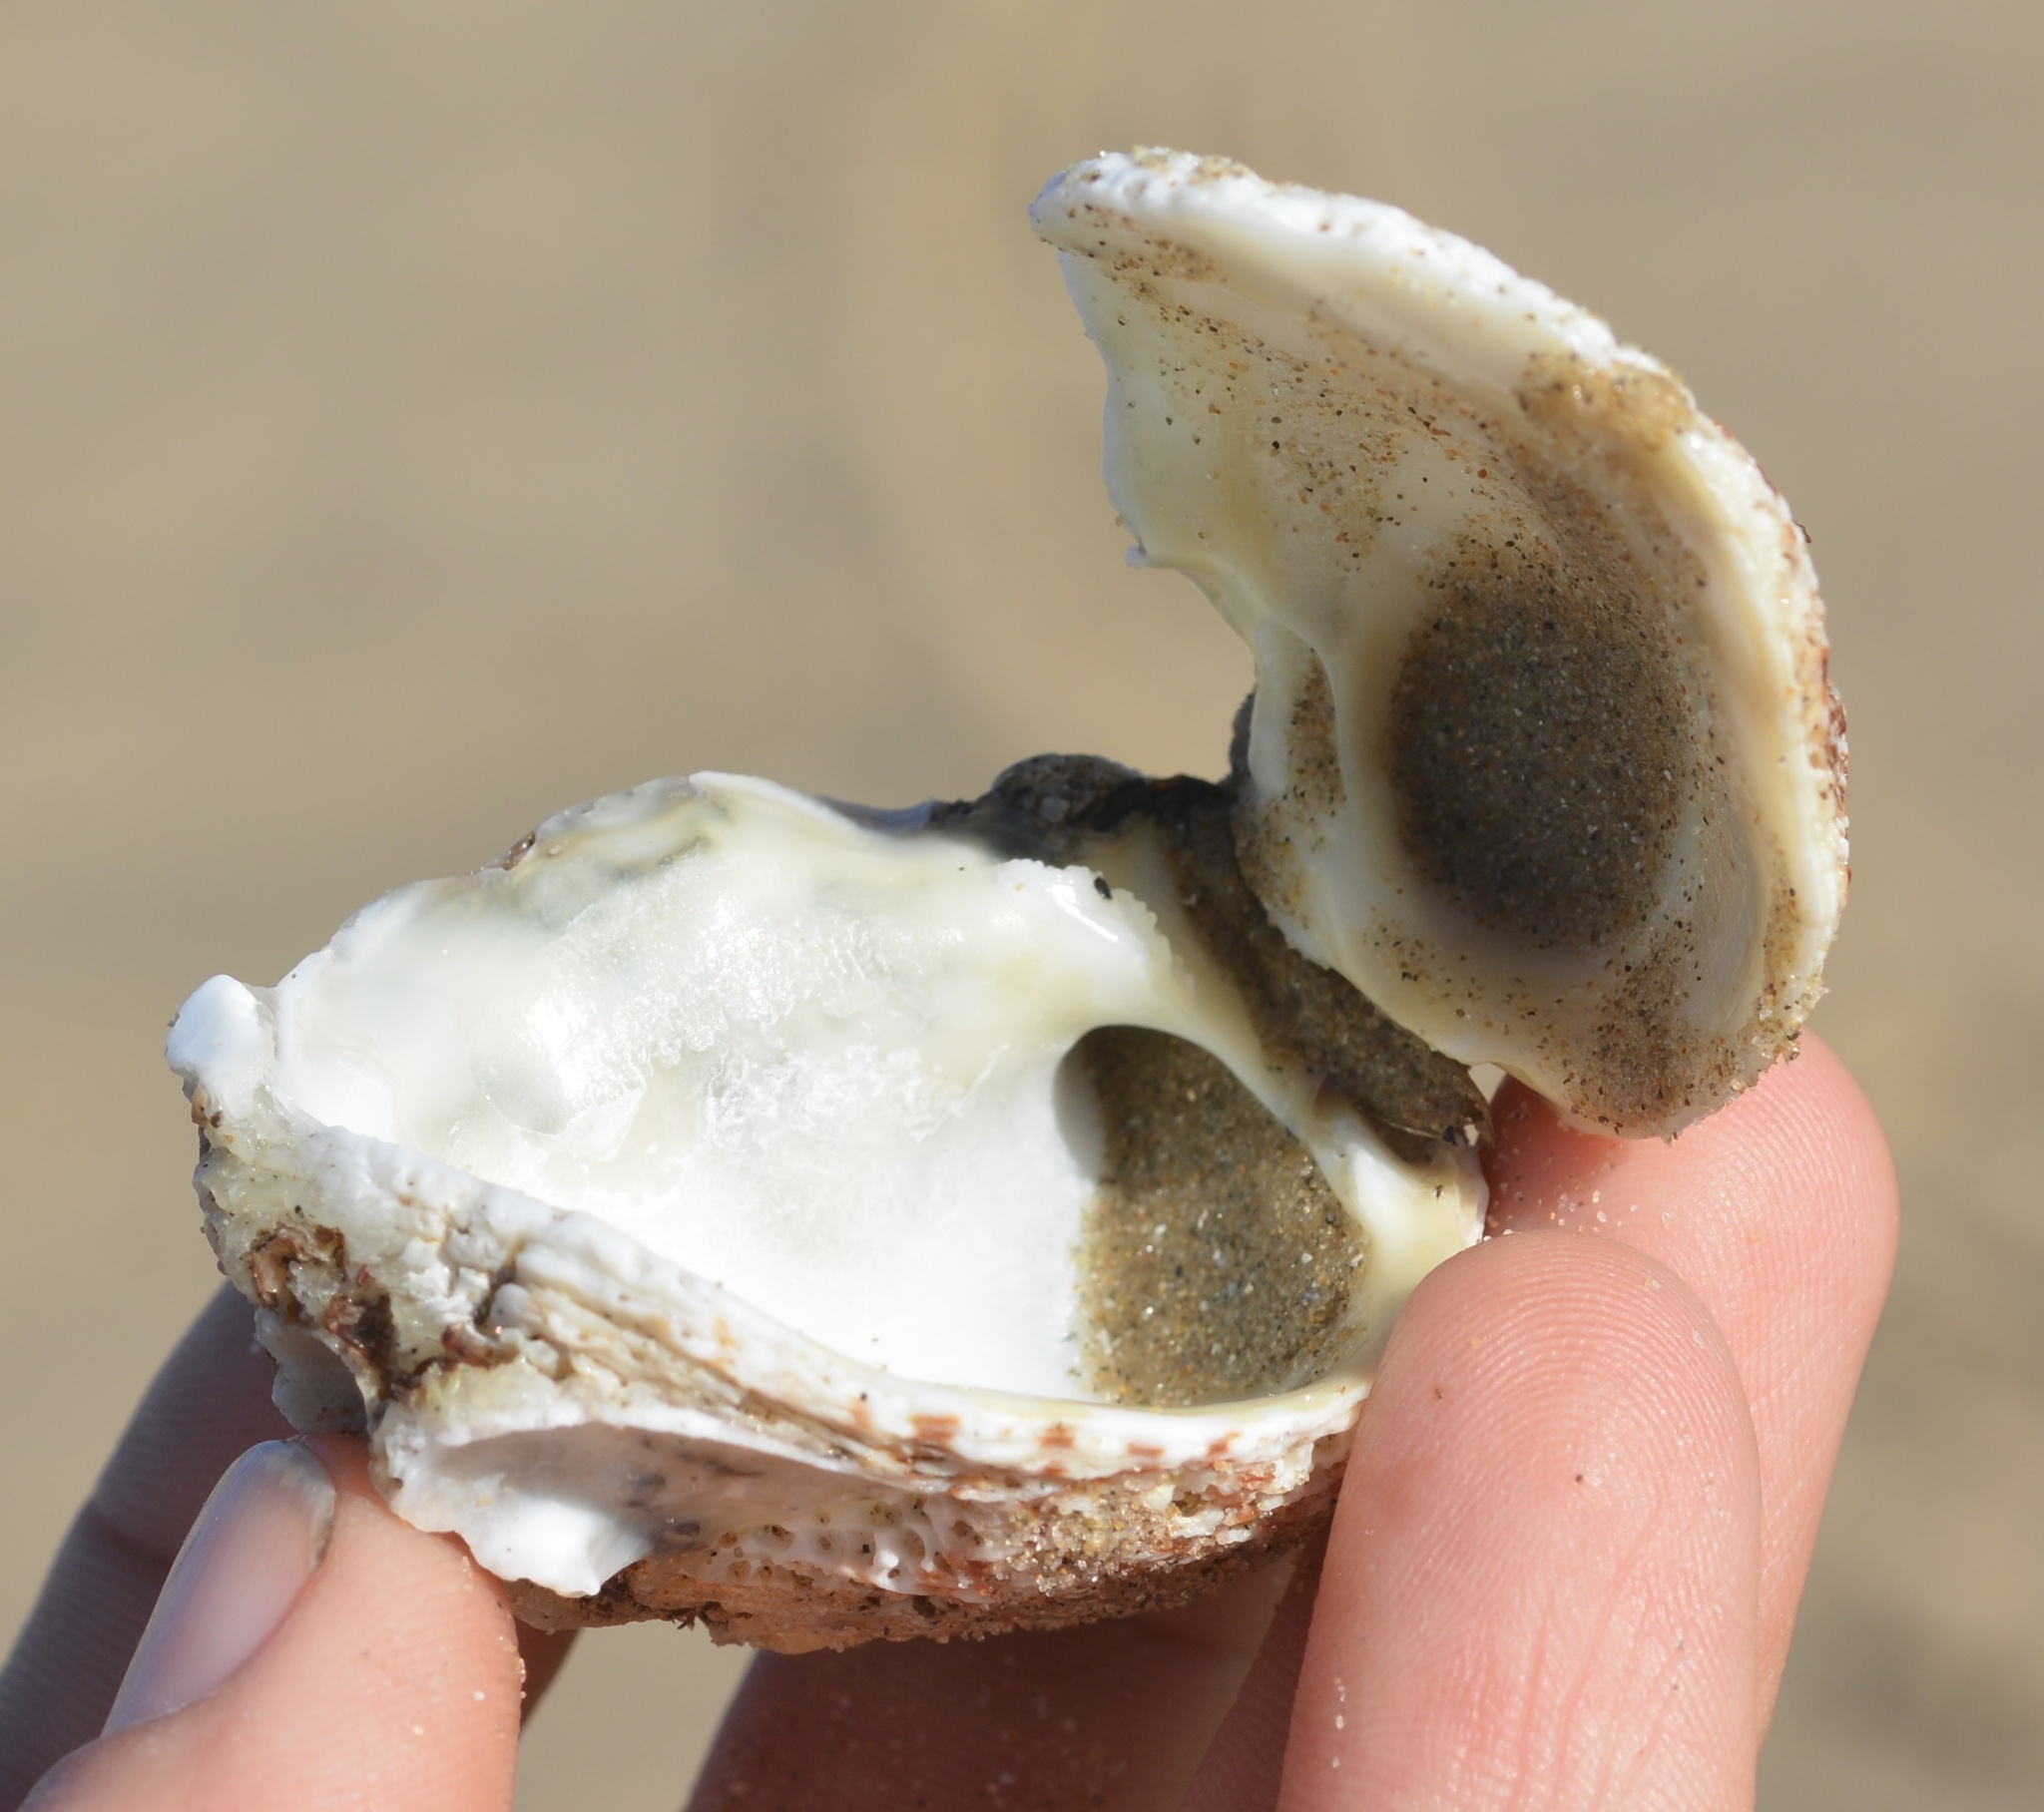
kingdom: Animalia
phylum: Mollusca
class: Bivalvia
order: Venerida
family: Chamidae
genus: Pseudochama
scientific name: Pseudochama exogyra
